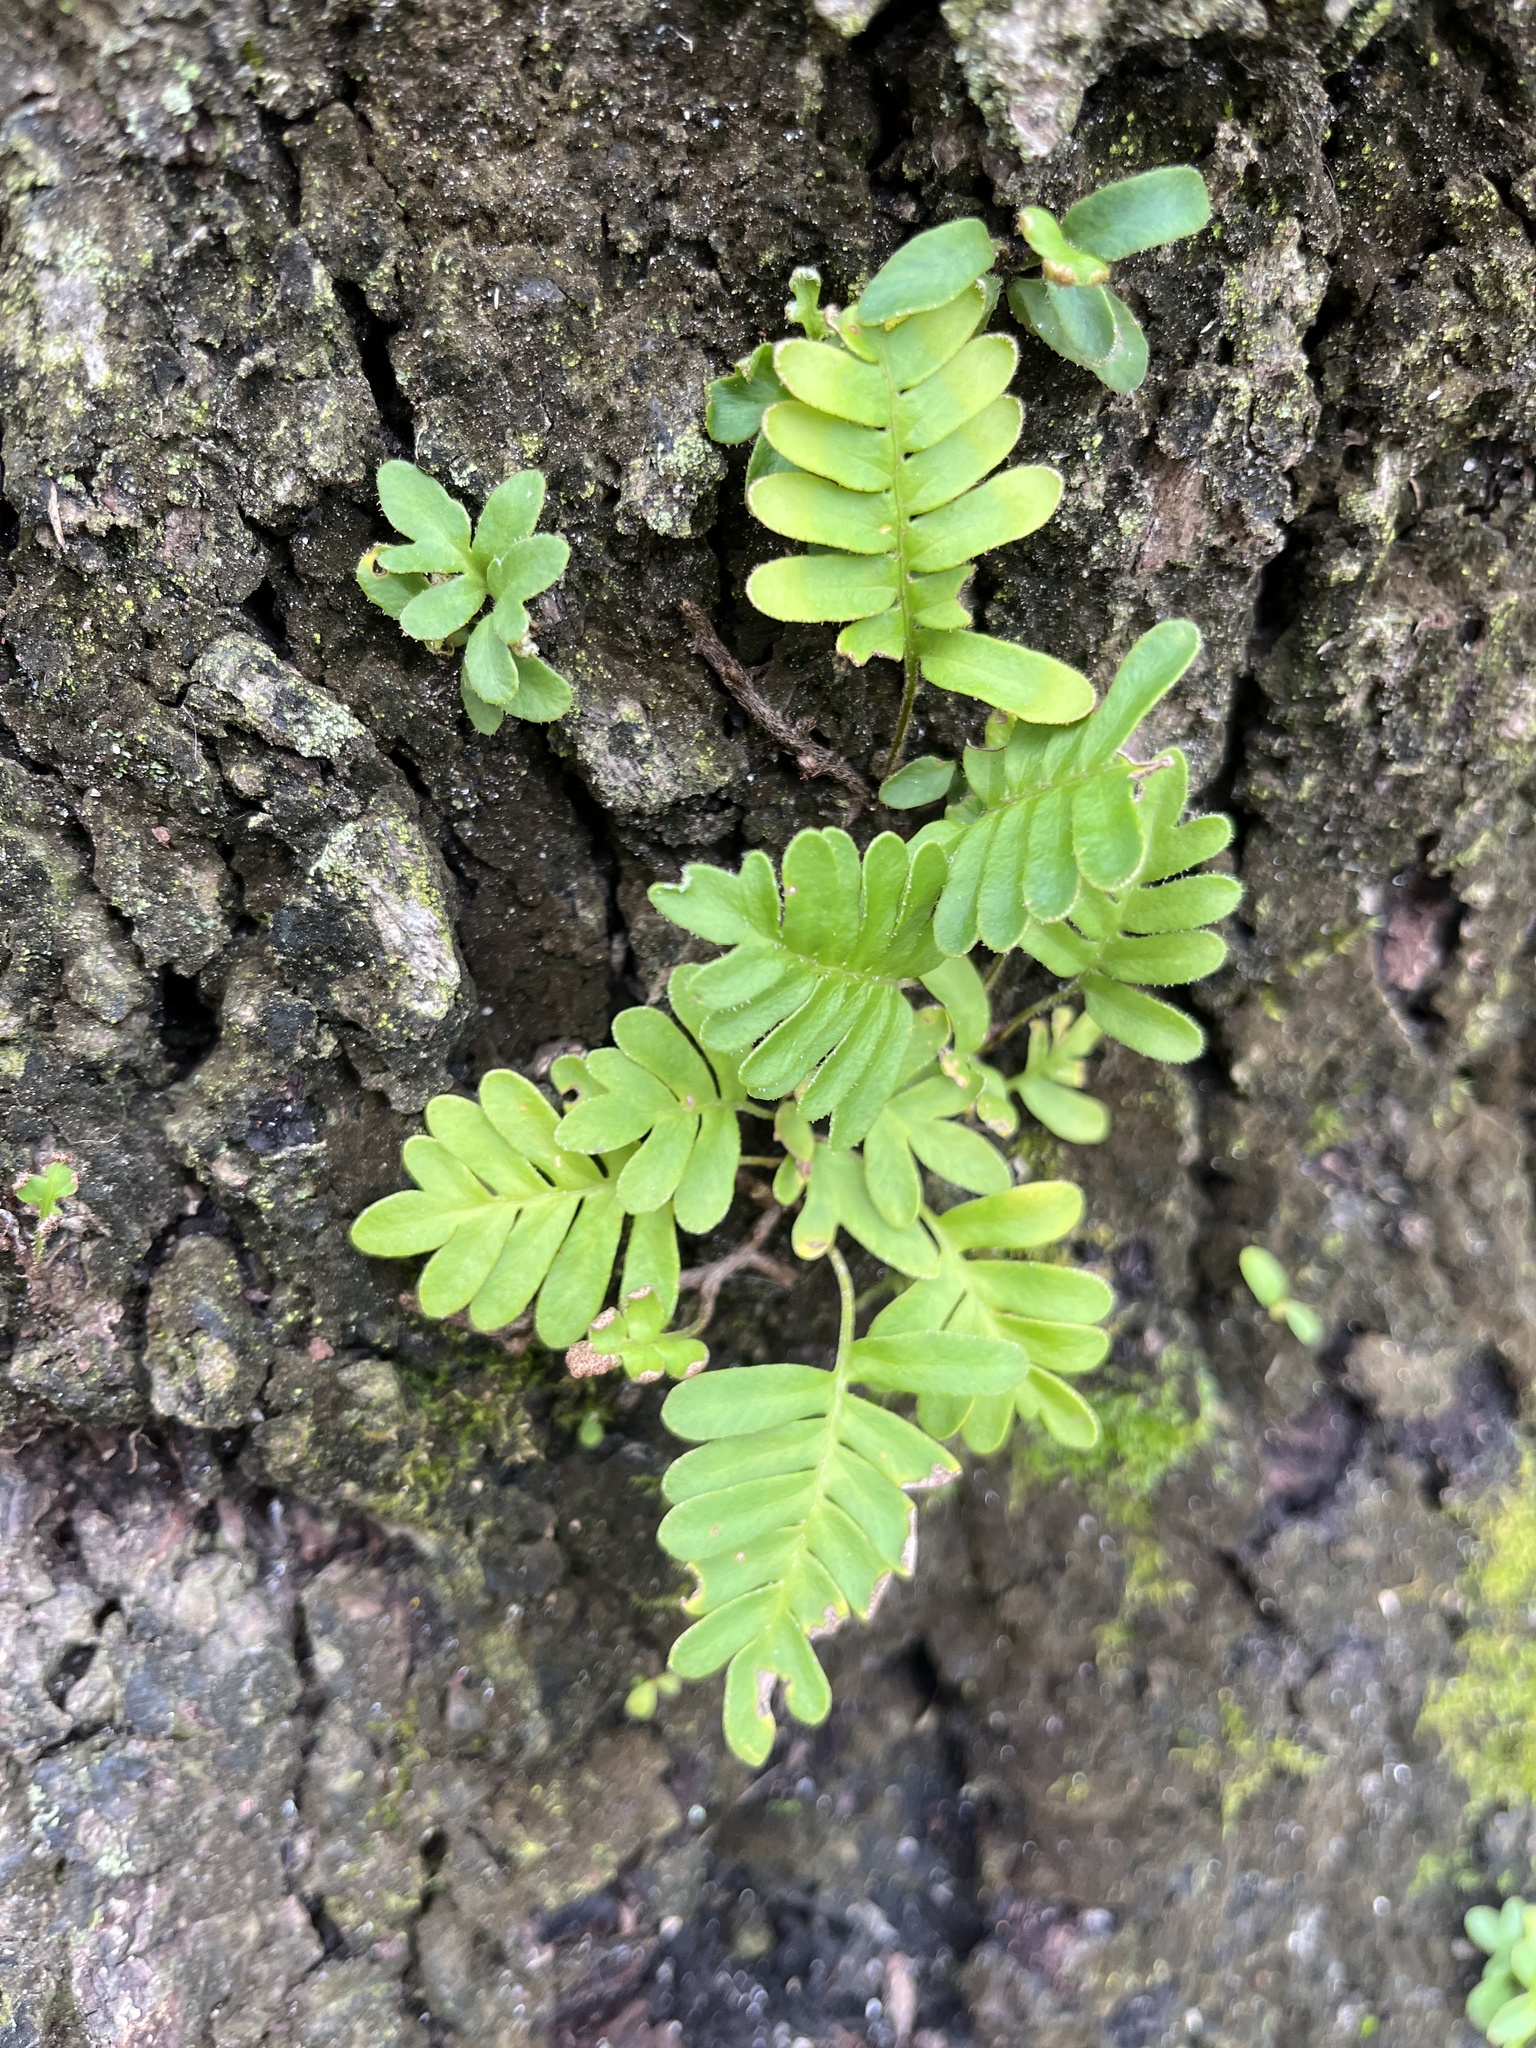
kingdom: Plantae
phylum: Tracheophyta
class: Polypodiopsida
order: Polypodiales
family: Polypodiaceae
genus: Pleopeltis
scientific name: Pleopeltis michauxiana
